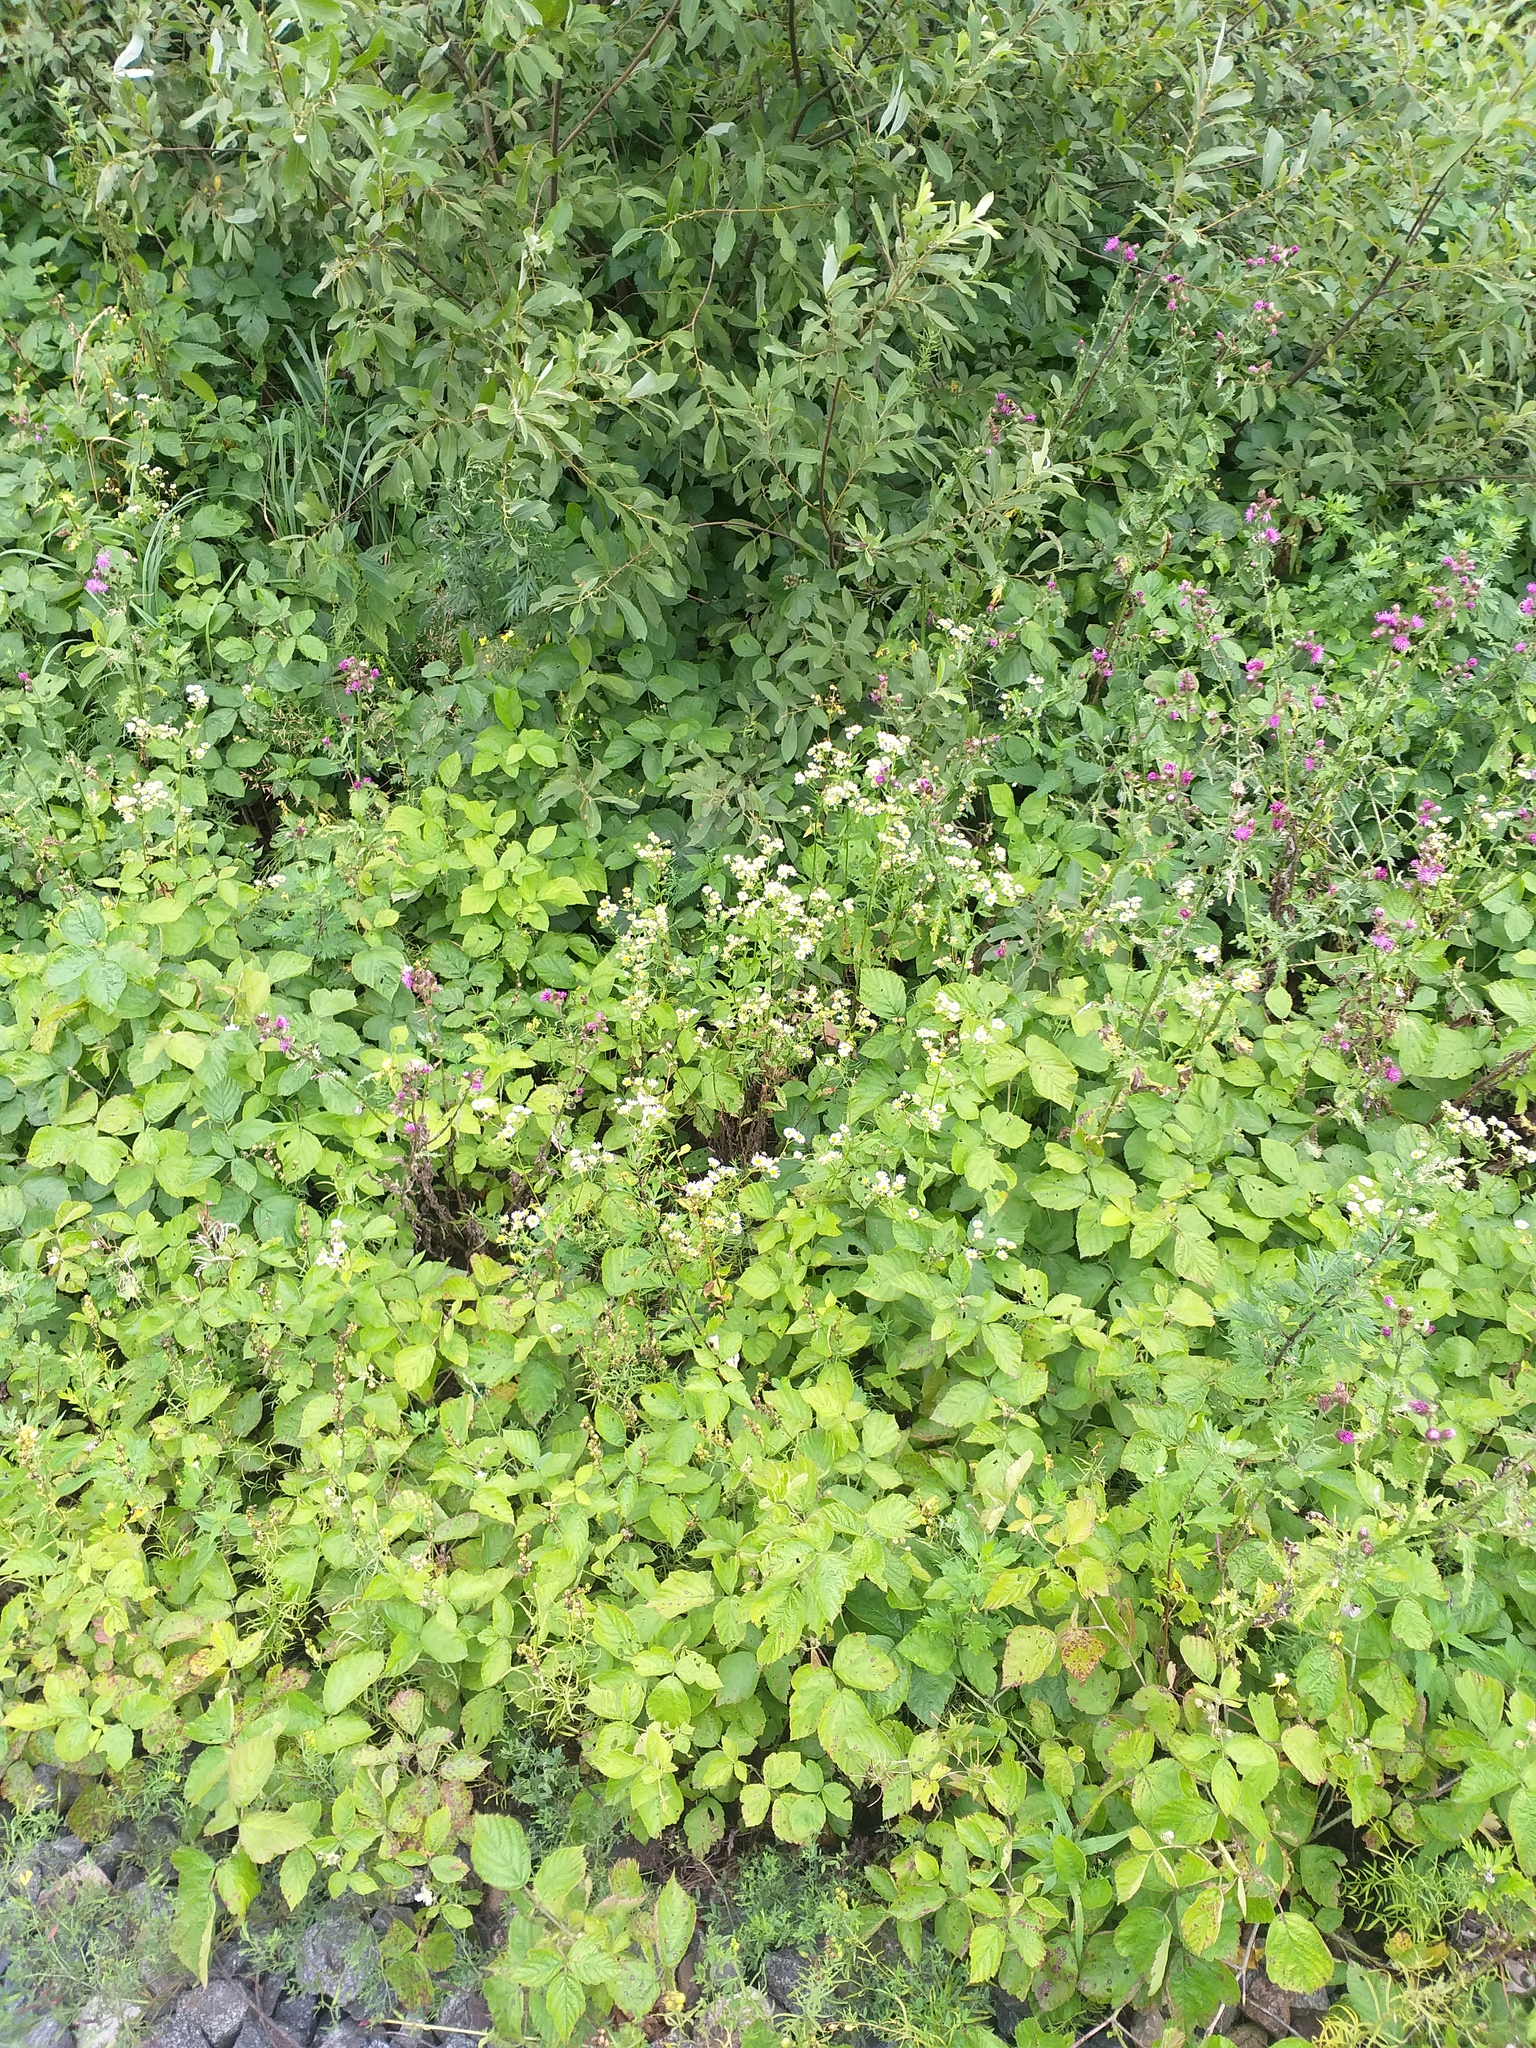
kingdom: Plantae
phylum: Tracheophyta
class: Magnoliopsida
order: Asterales
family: Asteraceae
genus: Erigeron
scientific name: Erigeron annuus
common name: Tall fleabane
